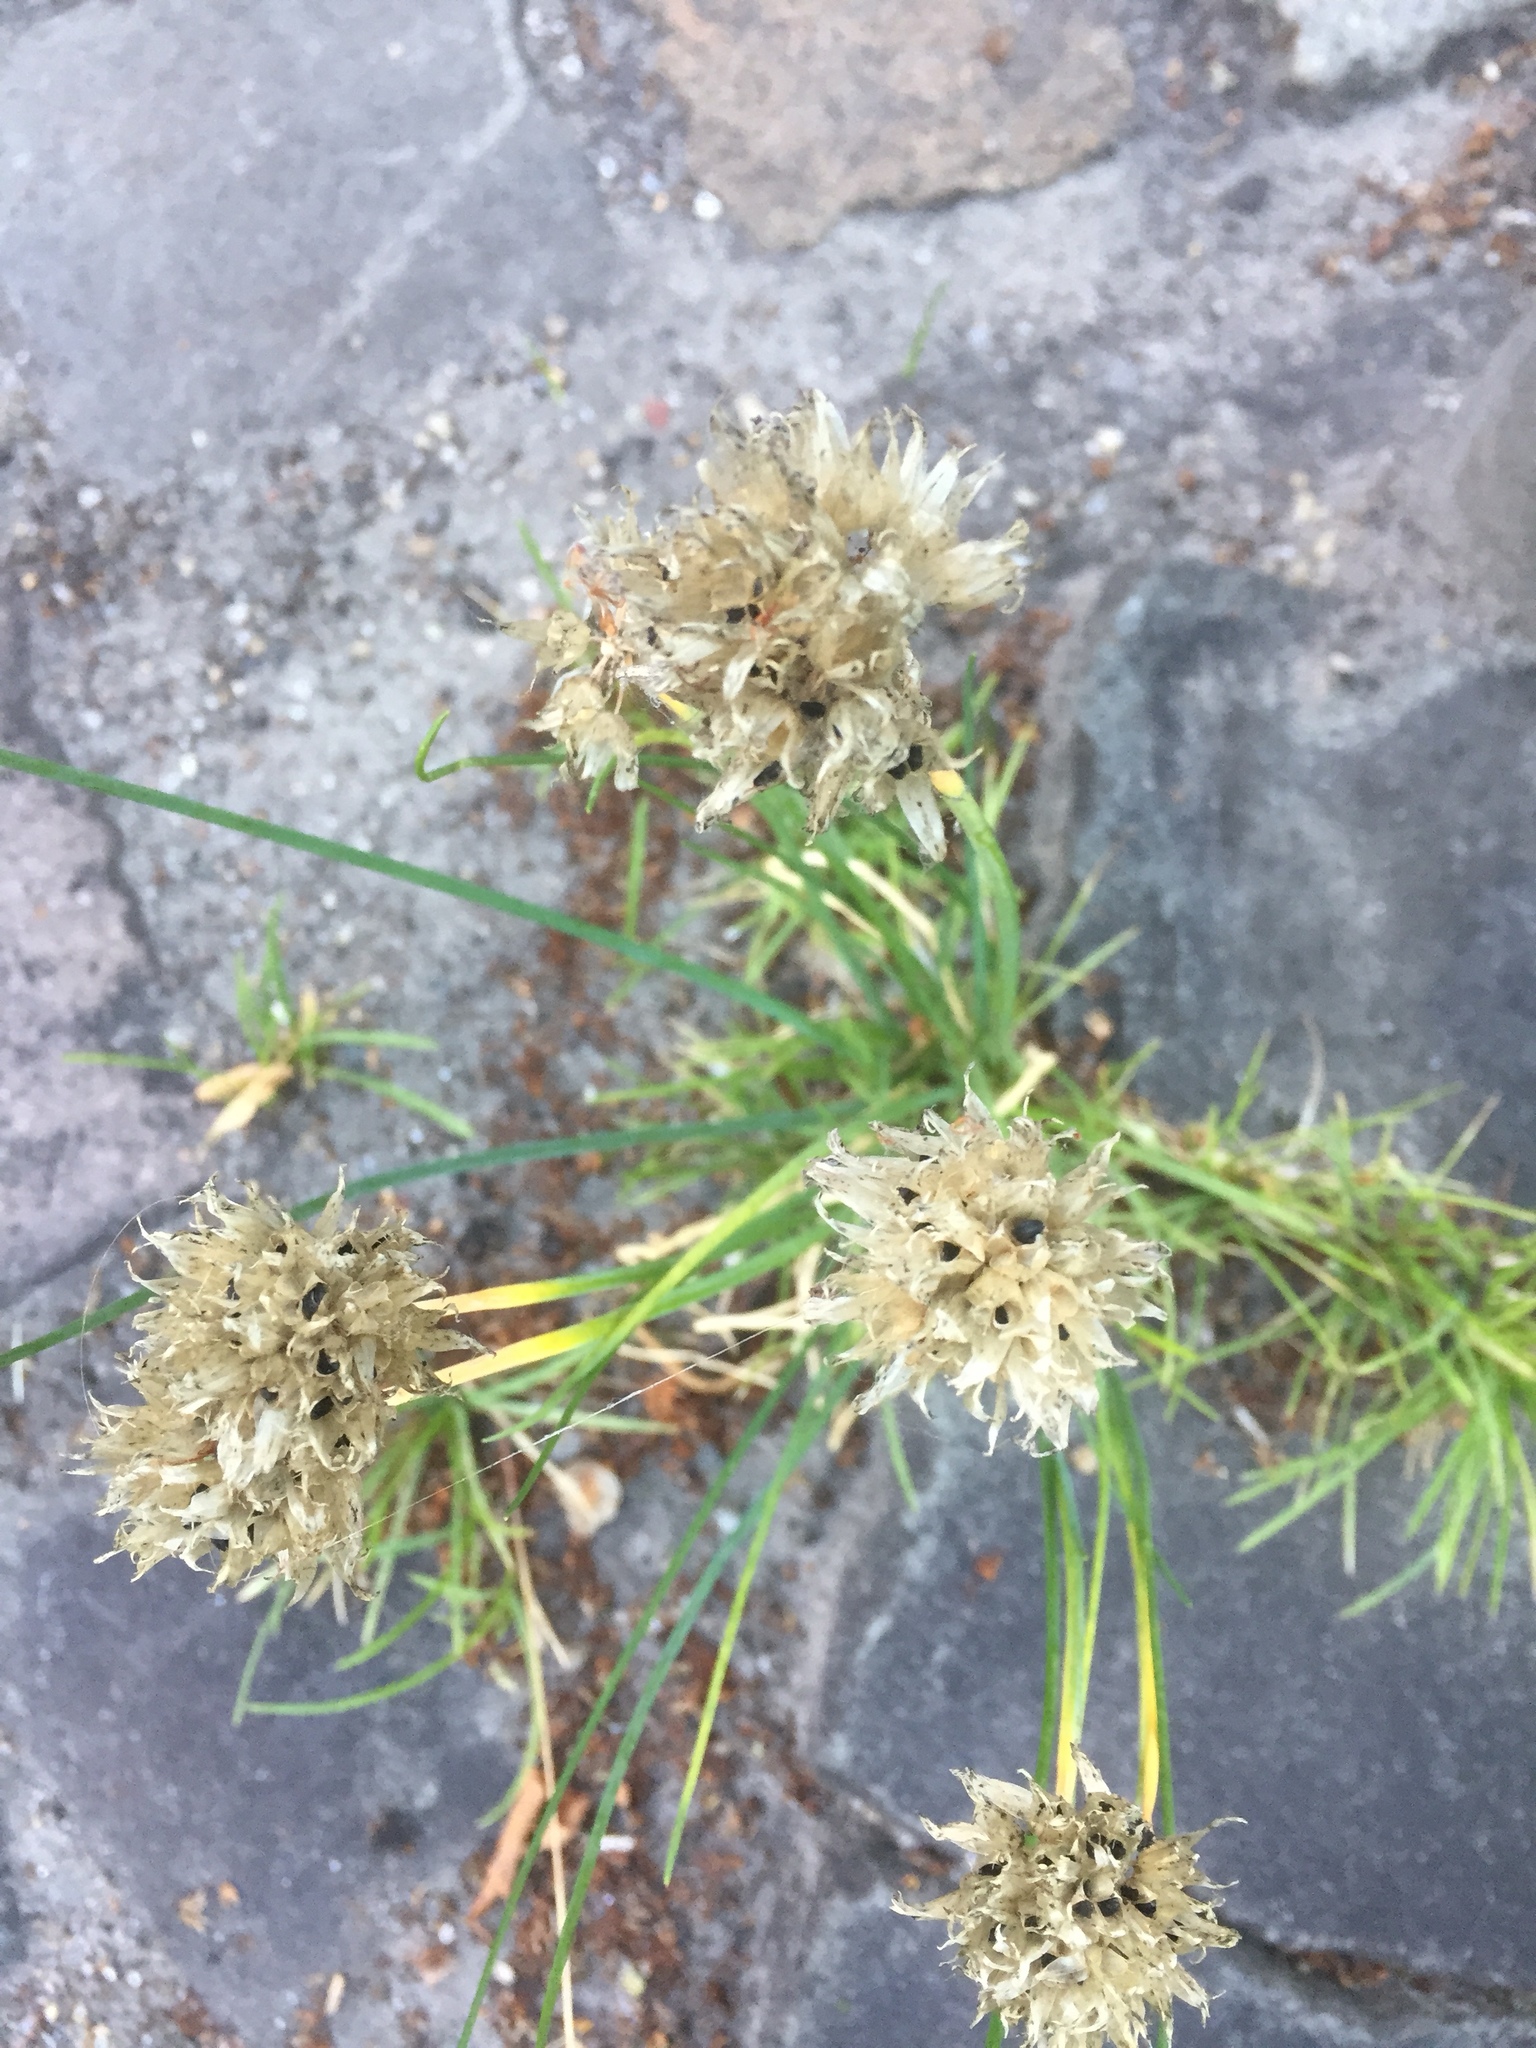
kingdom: Plantae
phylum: Tracheophyta
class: Liliopsida
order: Asparagales
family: Amaryllidaceae
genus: Allium
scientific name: Allium schoenoprasum
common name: Chives
